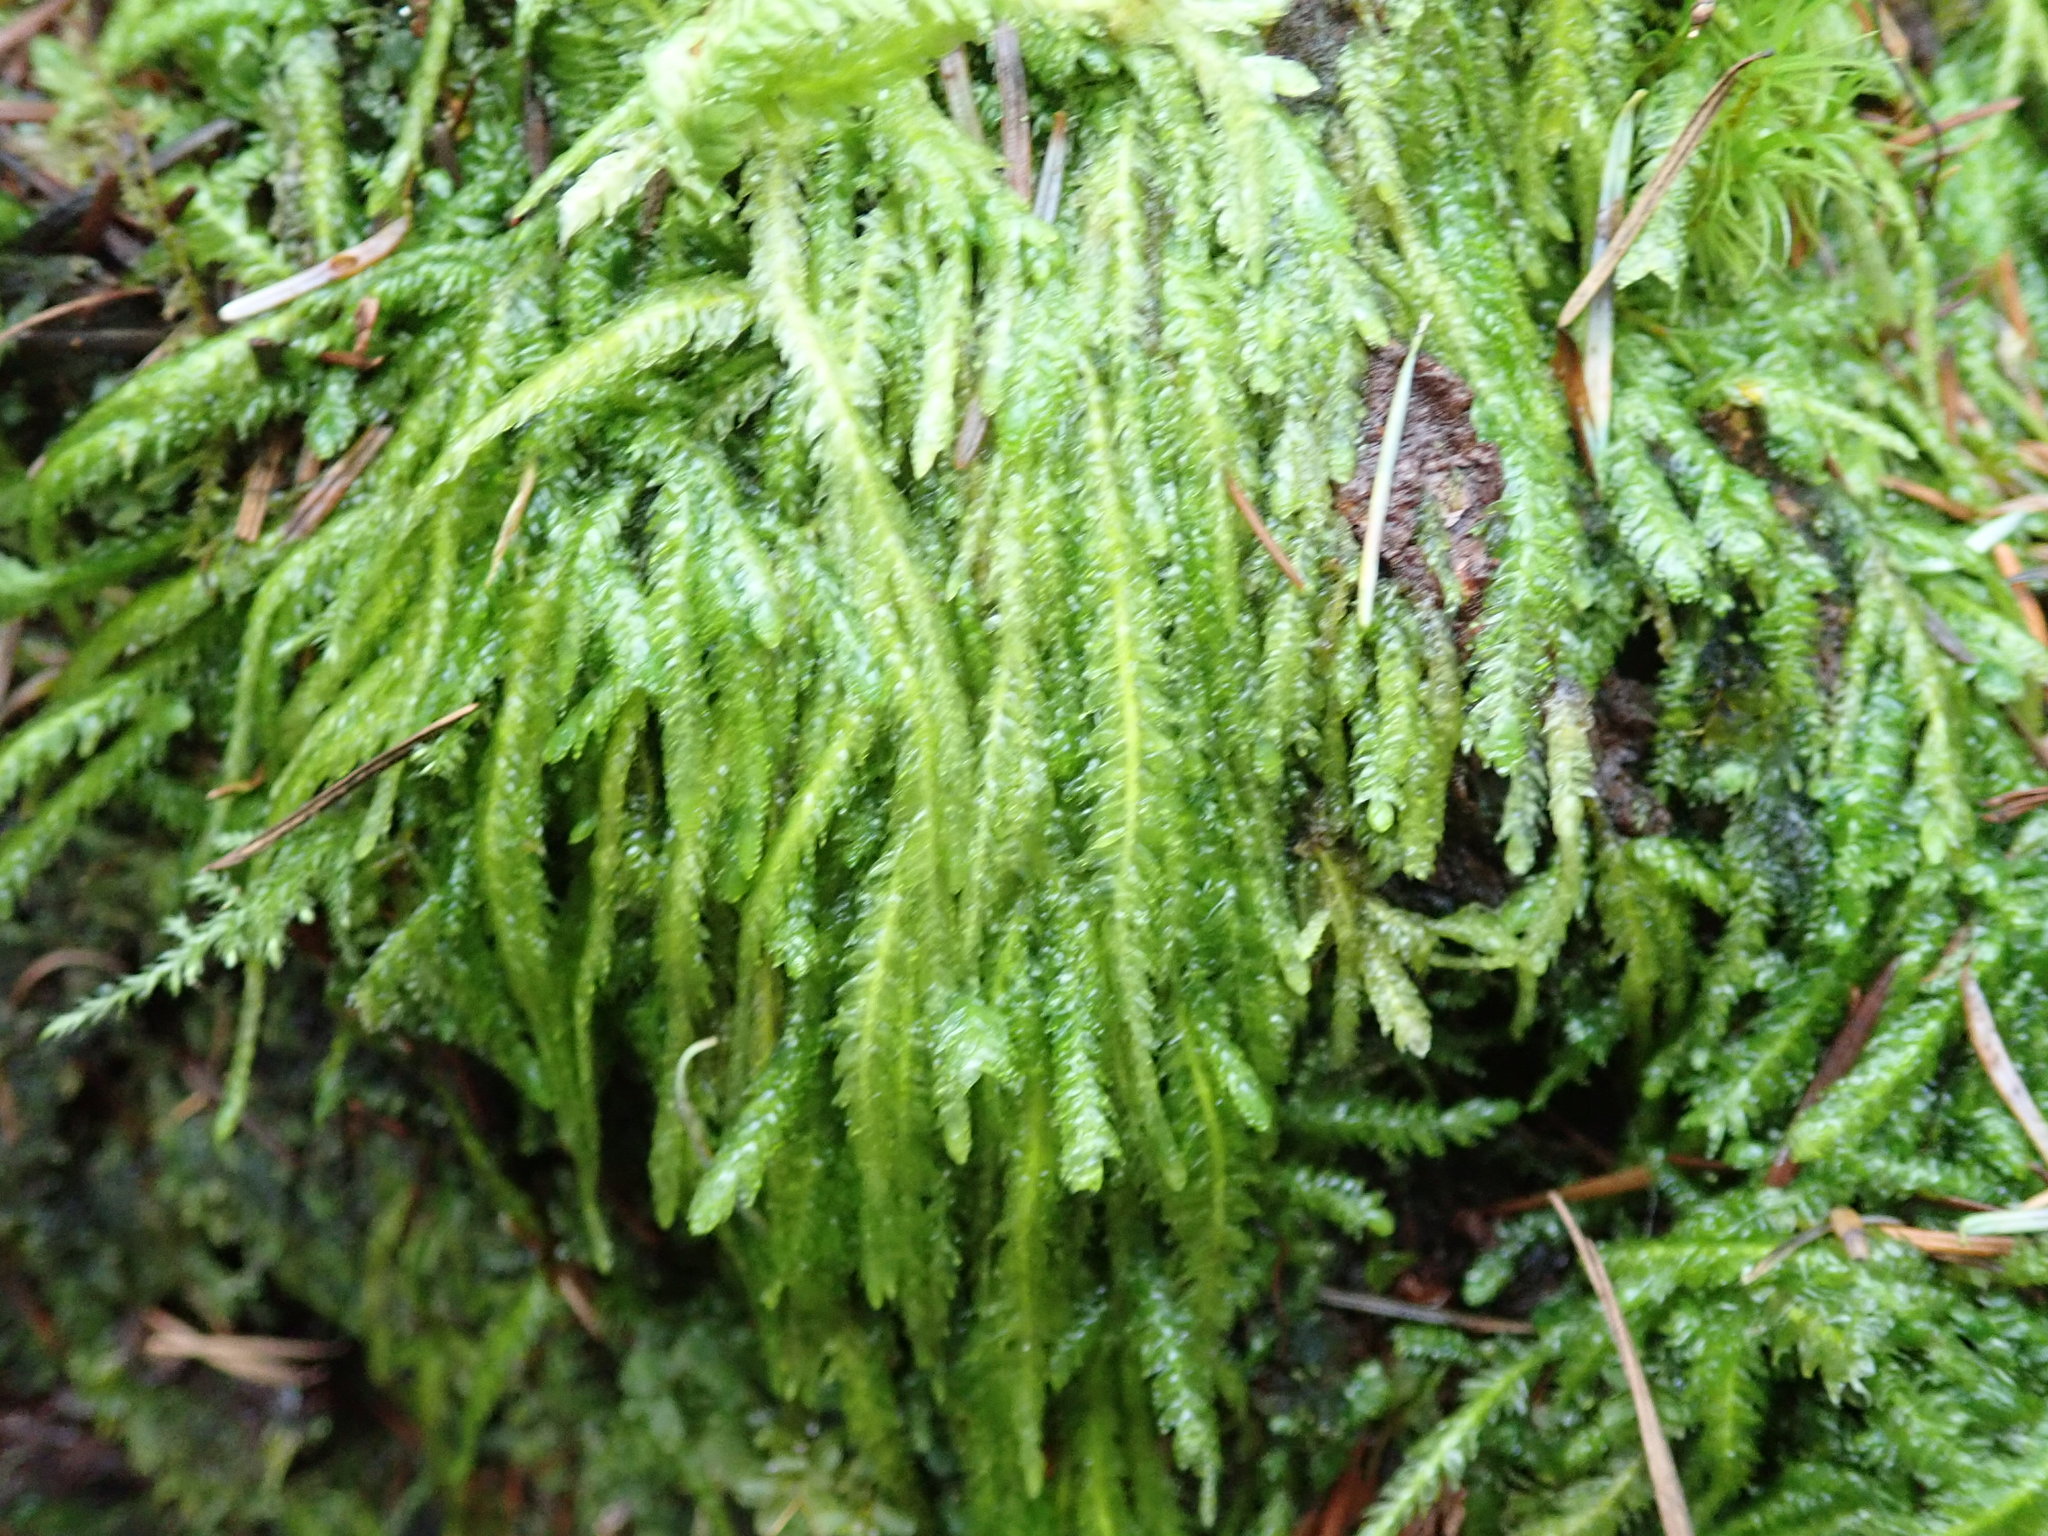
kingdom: Plantae
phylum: Bryophyta
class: Bryopsida
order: Hypnales
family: Plagiotheciaceae
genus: Plagiothecium
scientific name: Plagiothecium undulatum
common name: Waved silk-moss
